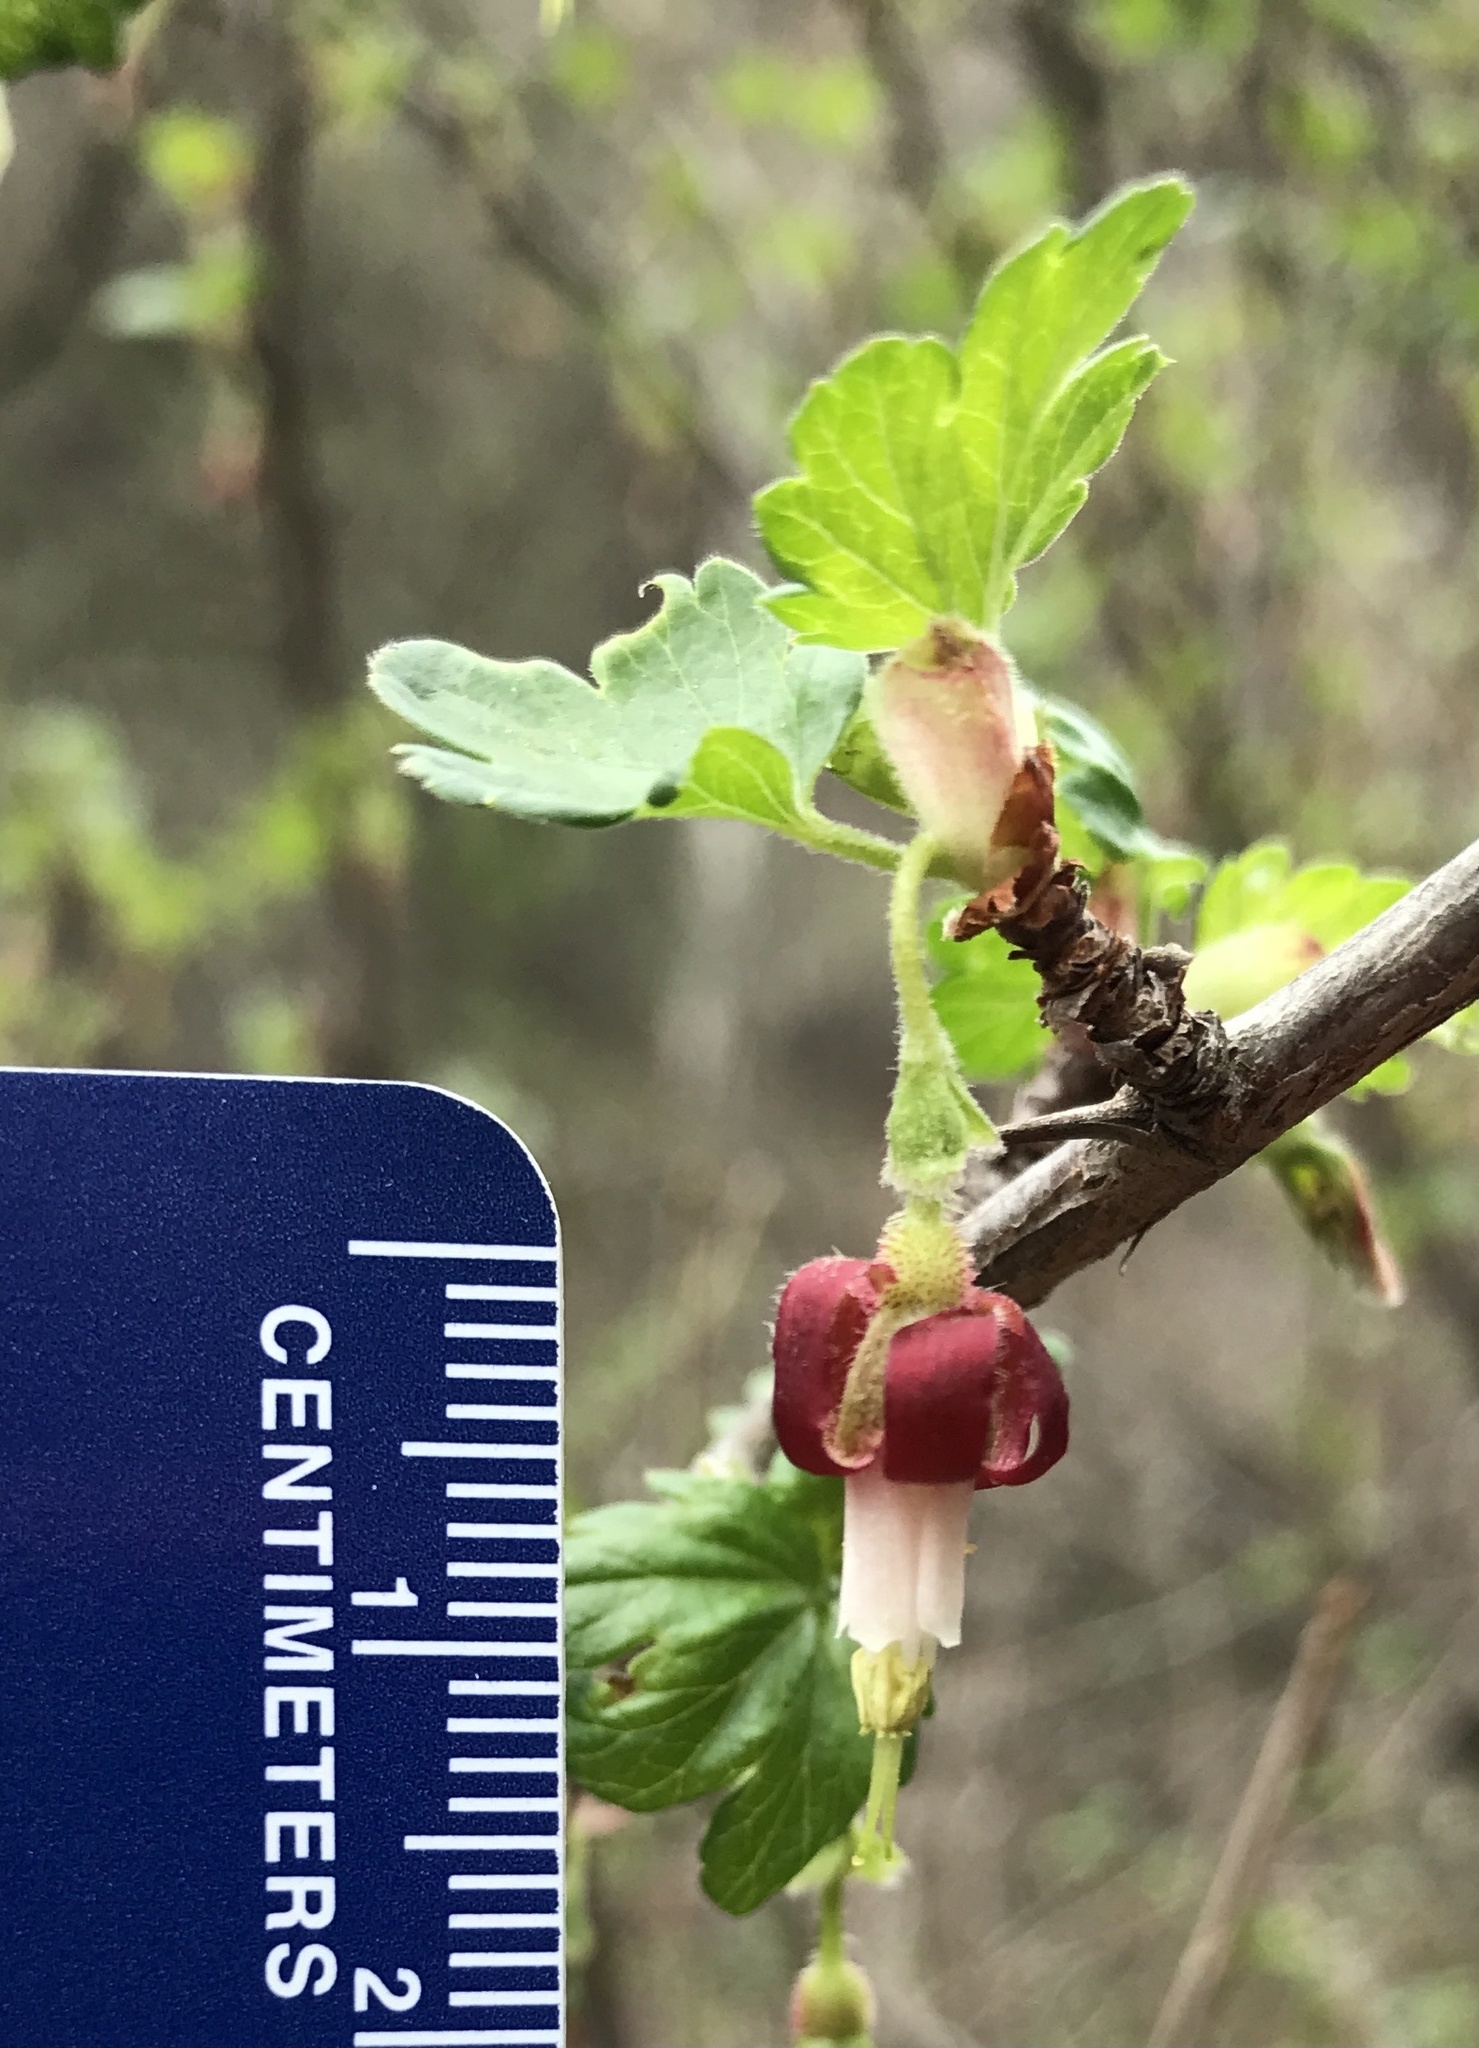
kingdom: Plantae
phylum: Tracheophyta
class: Magnoliopsida
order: Saxifragales
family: Grossulariaceae
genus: Ribes
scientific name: Ribes californicum
